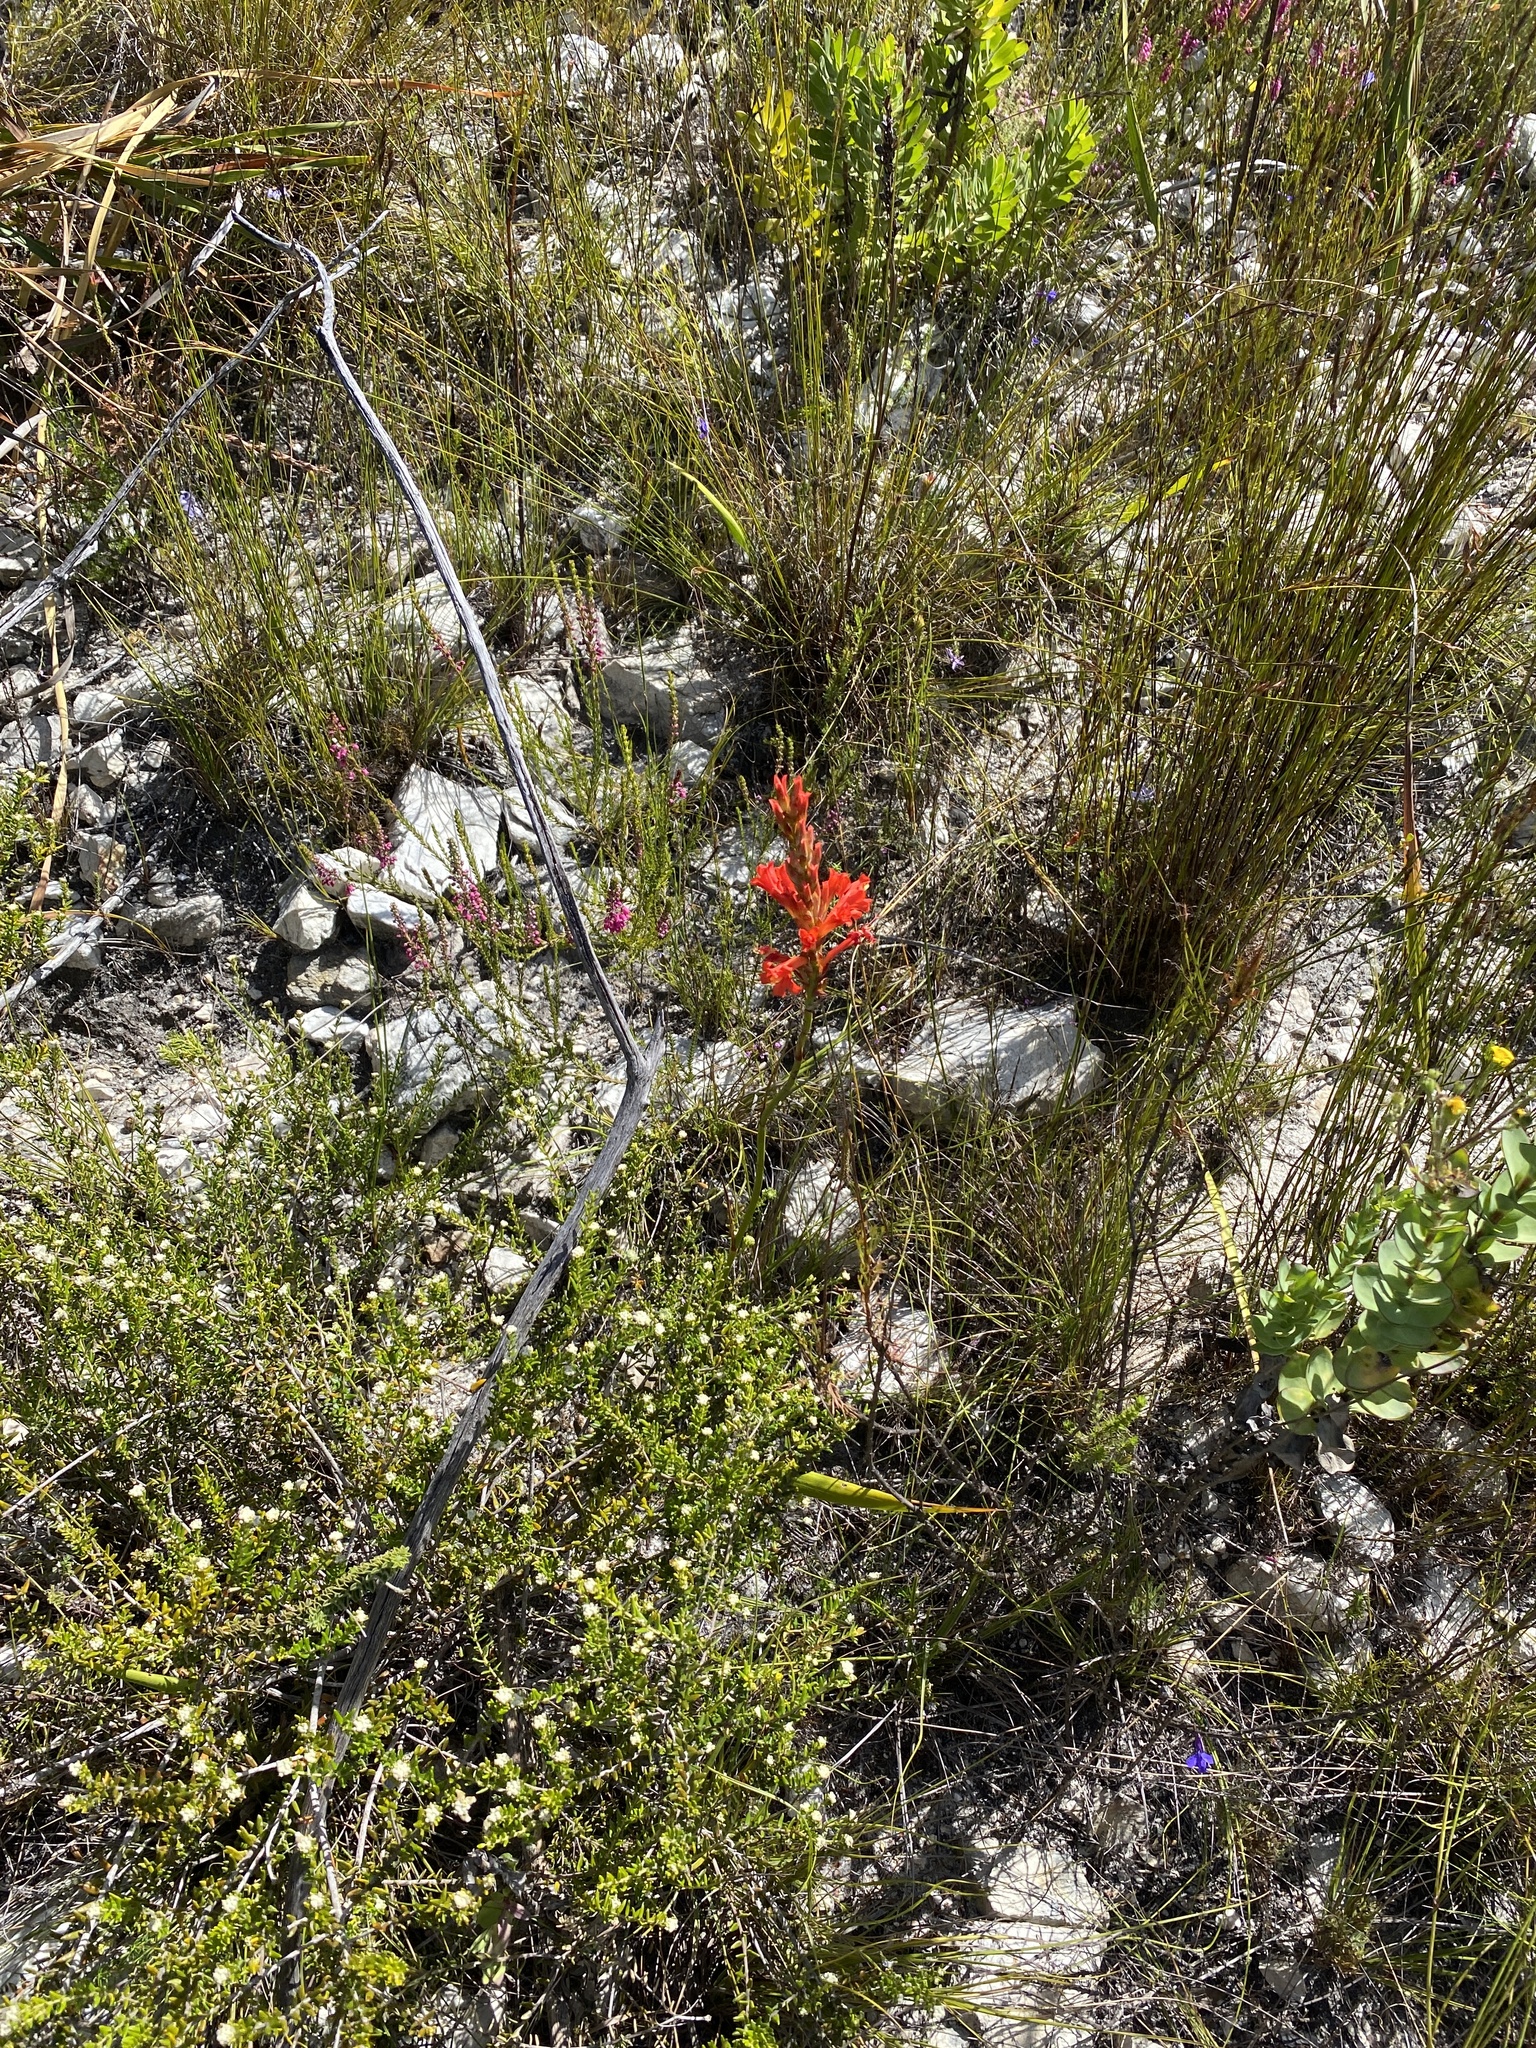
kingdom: Plantae
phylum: Tracheophyta
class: Liliopsida
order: Asparagales
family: Iridaceae
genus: Tritoniopsis
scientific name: Tritoniopsis triticea
